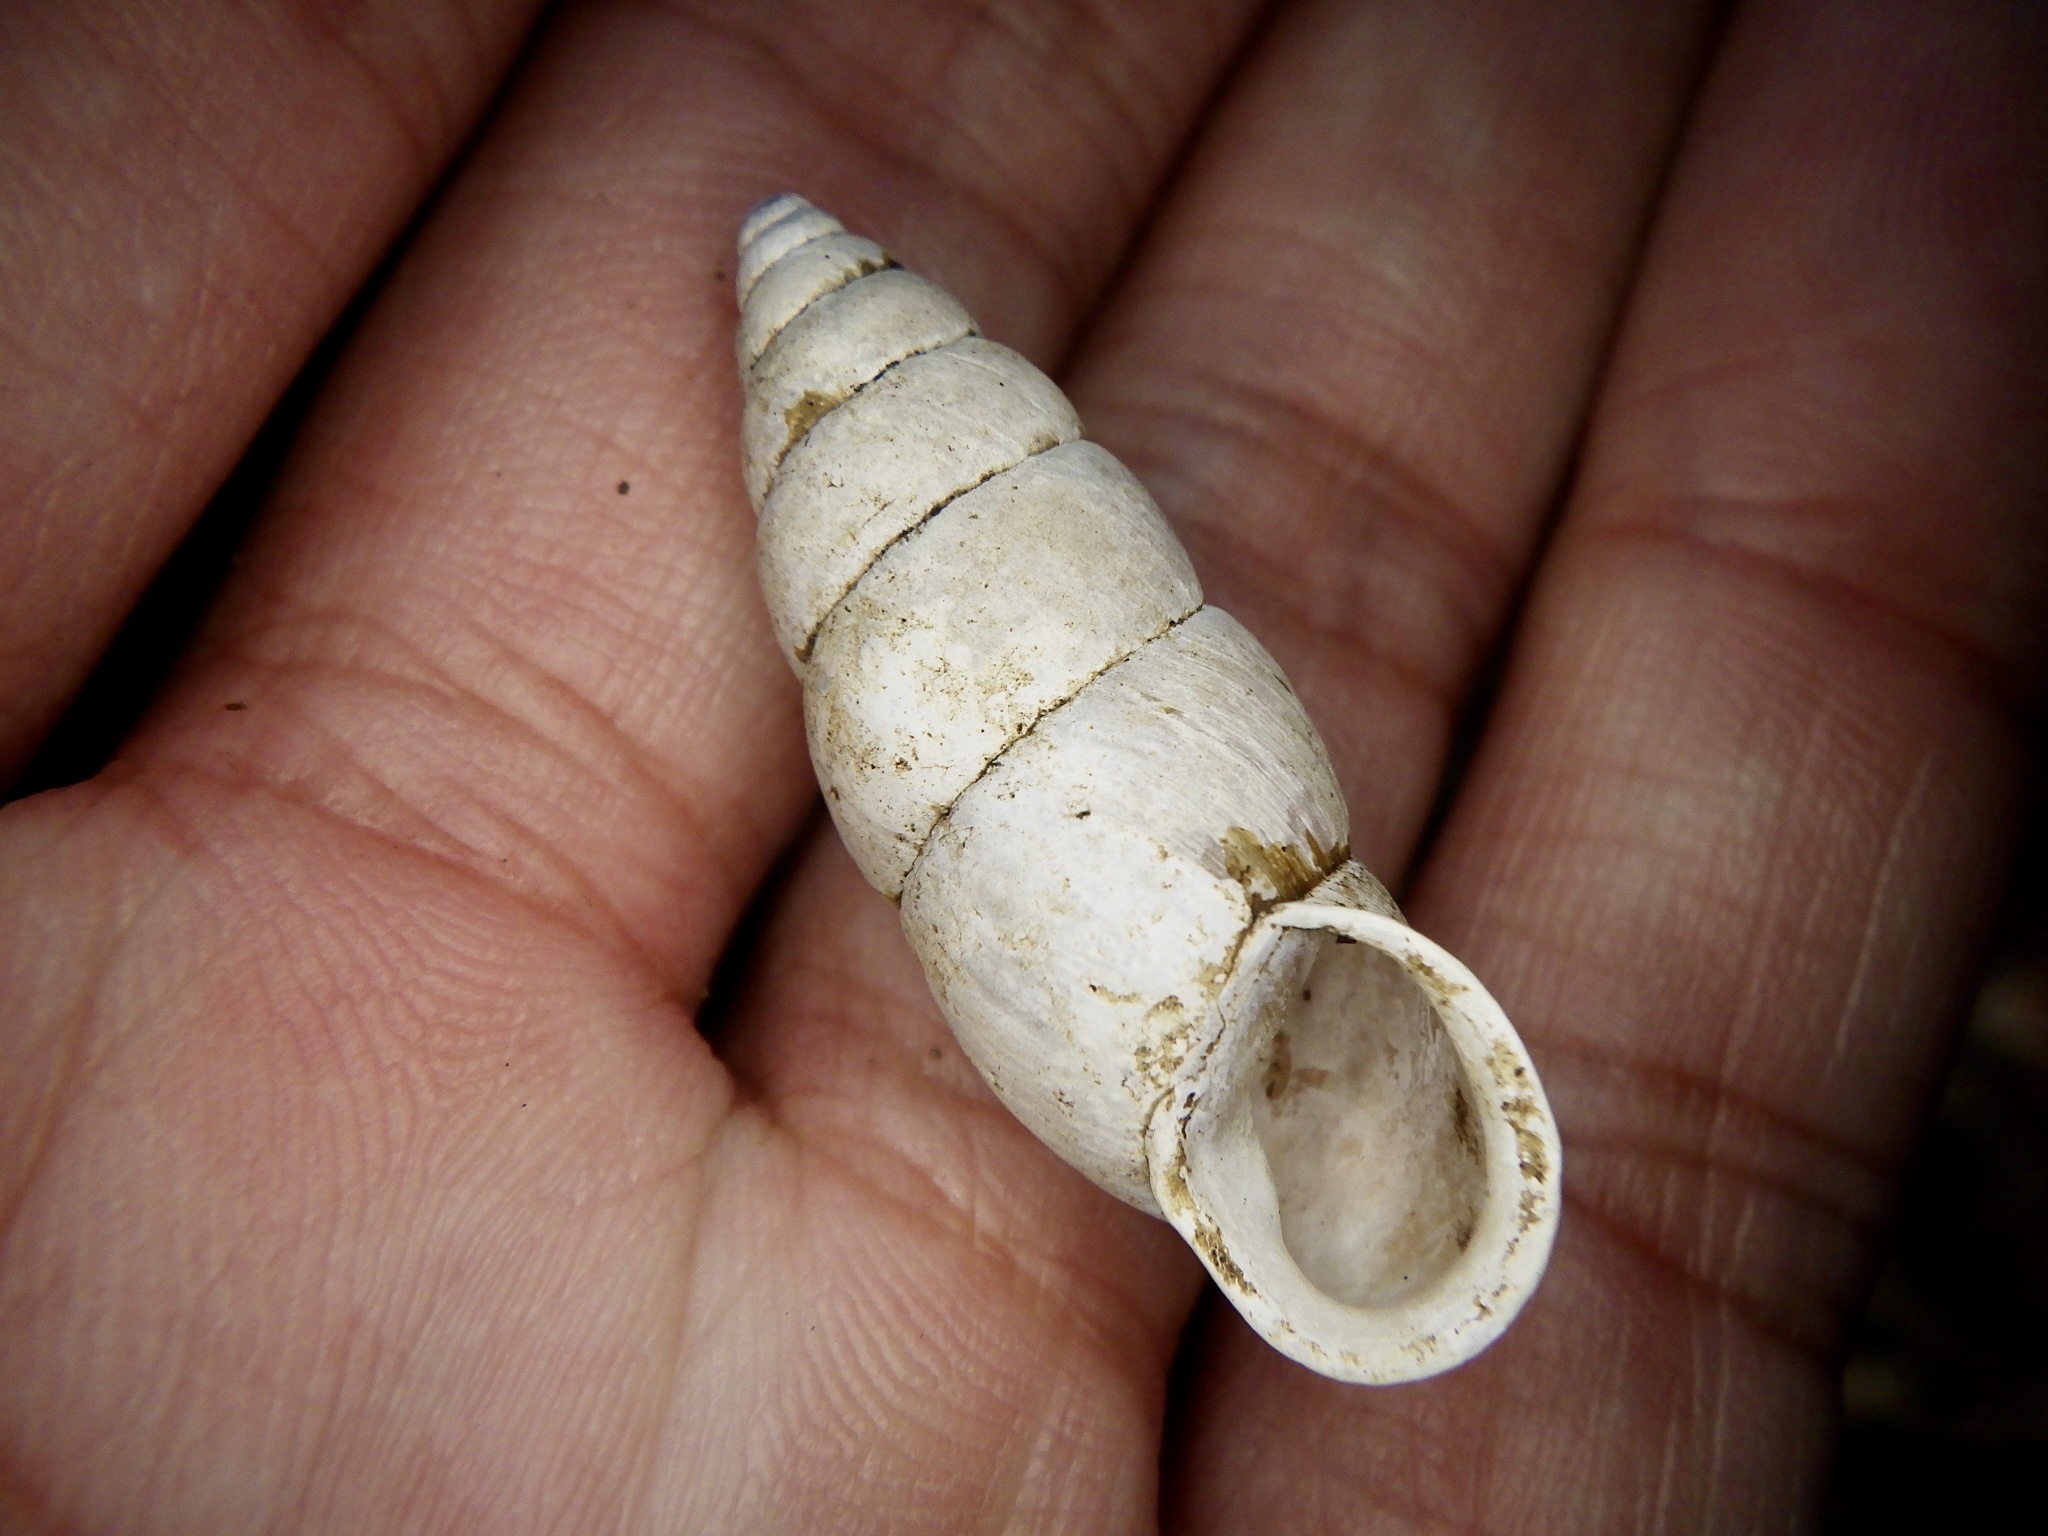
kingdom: Animalia
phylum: Mollusca
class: Gastropoda
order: Stylommatophora
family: Enidae
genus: Mirus
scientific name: Mirus japonicus
